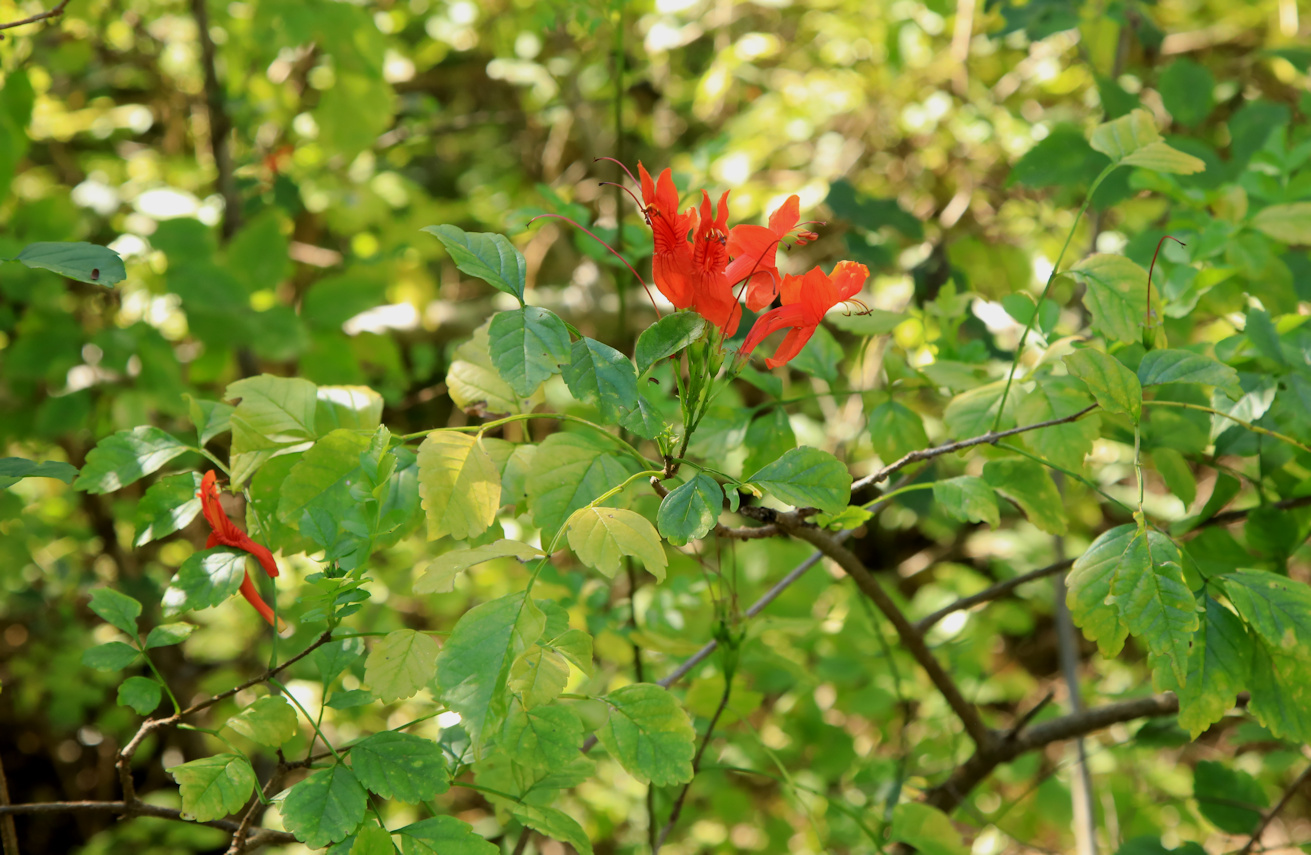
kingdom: Plantae
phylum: Tracheophyta
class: Magnoliopsida
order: Lamiales
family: Bignoniaceae
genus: Tecomaria
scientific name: Tecomaria capensis
